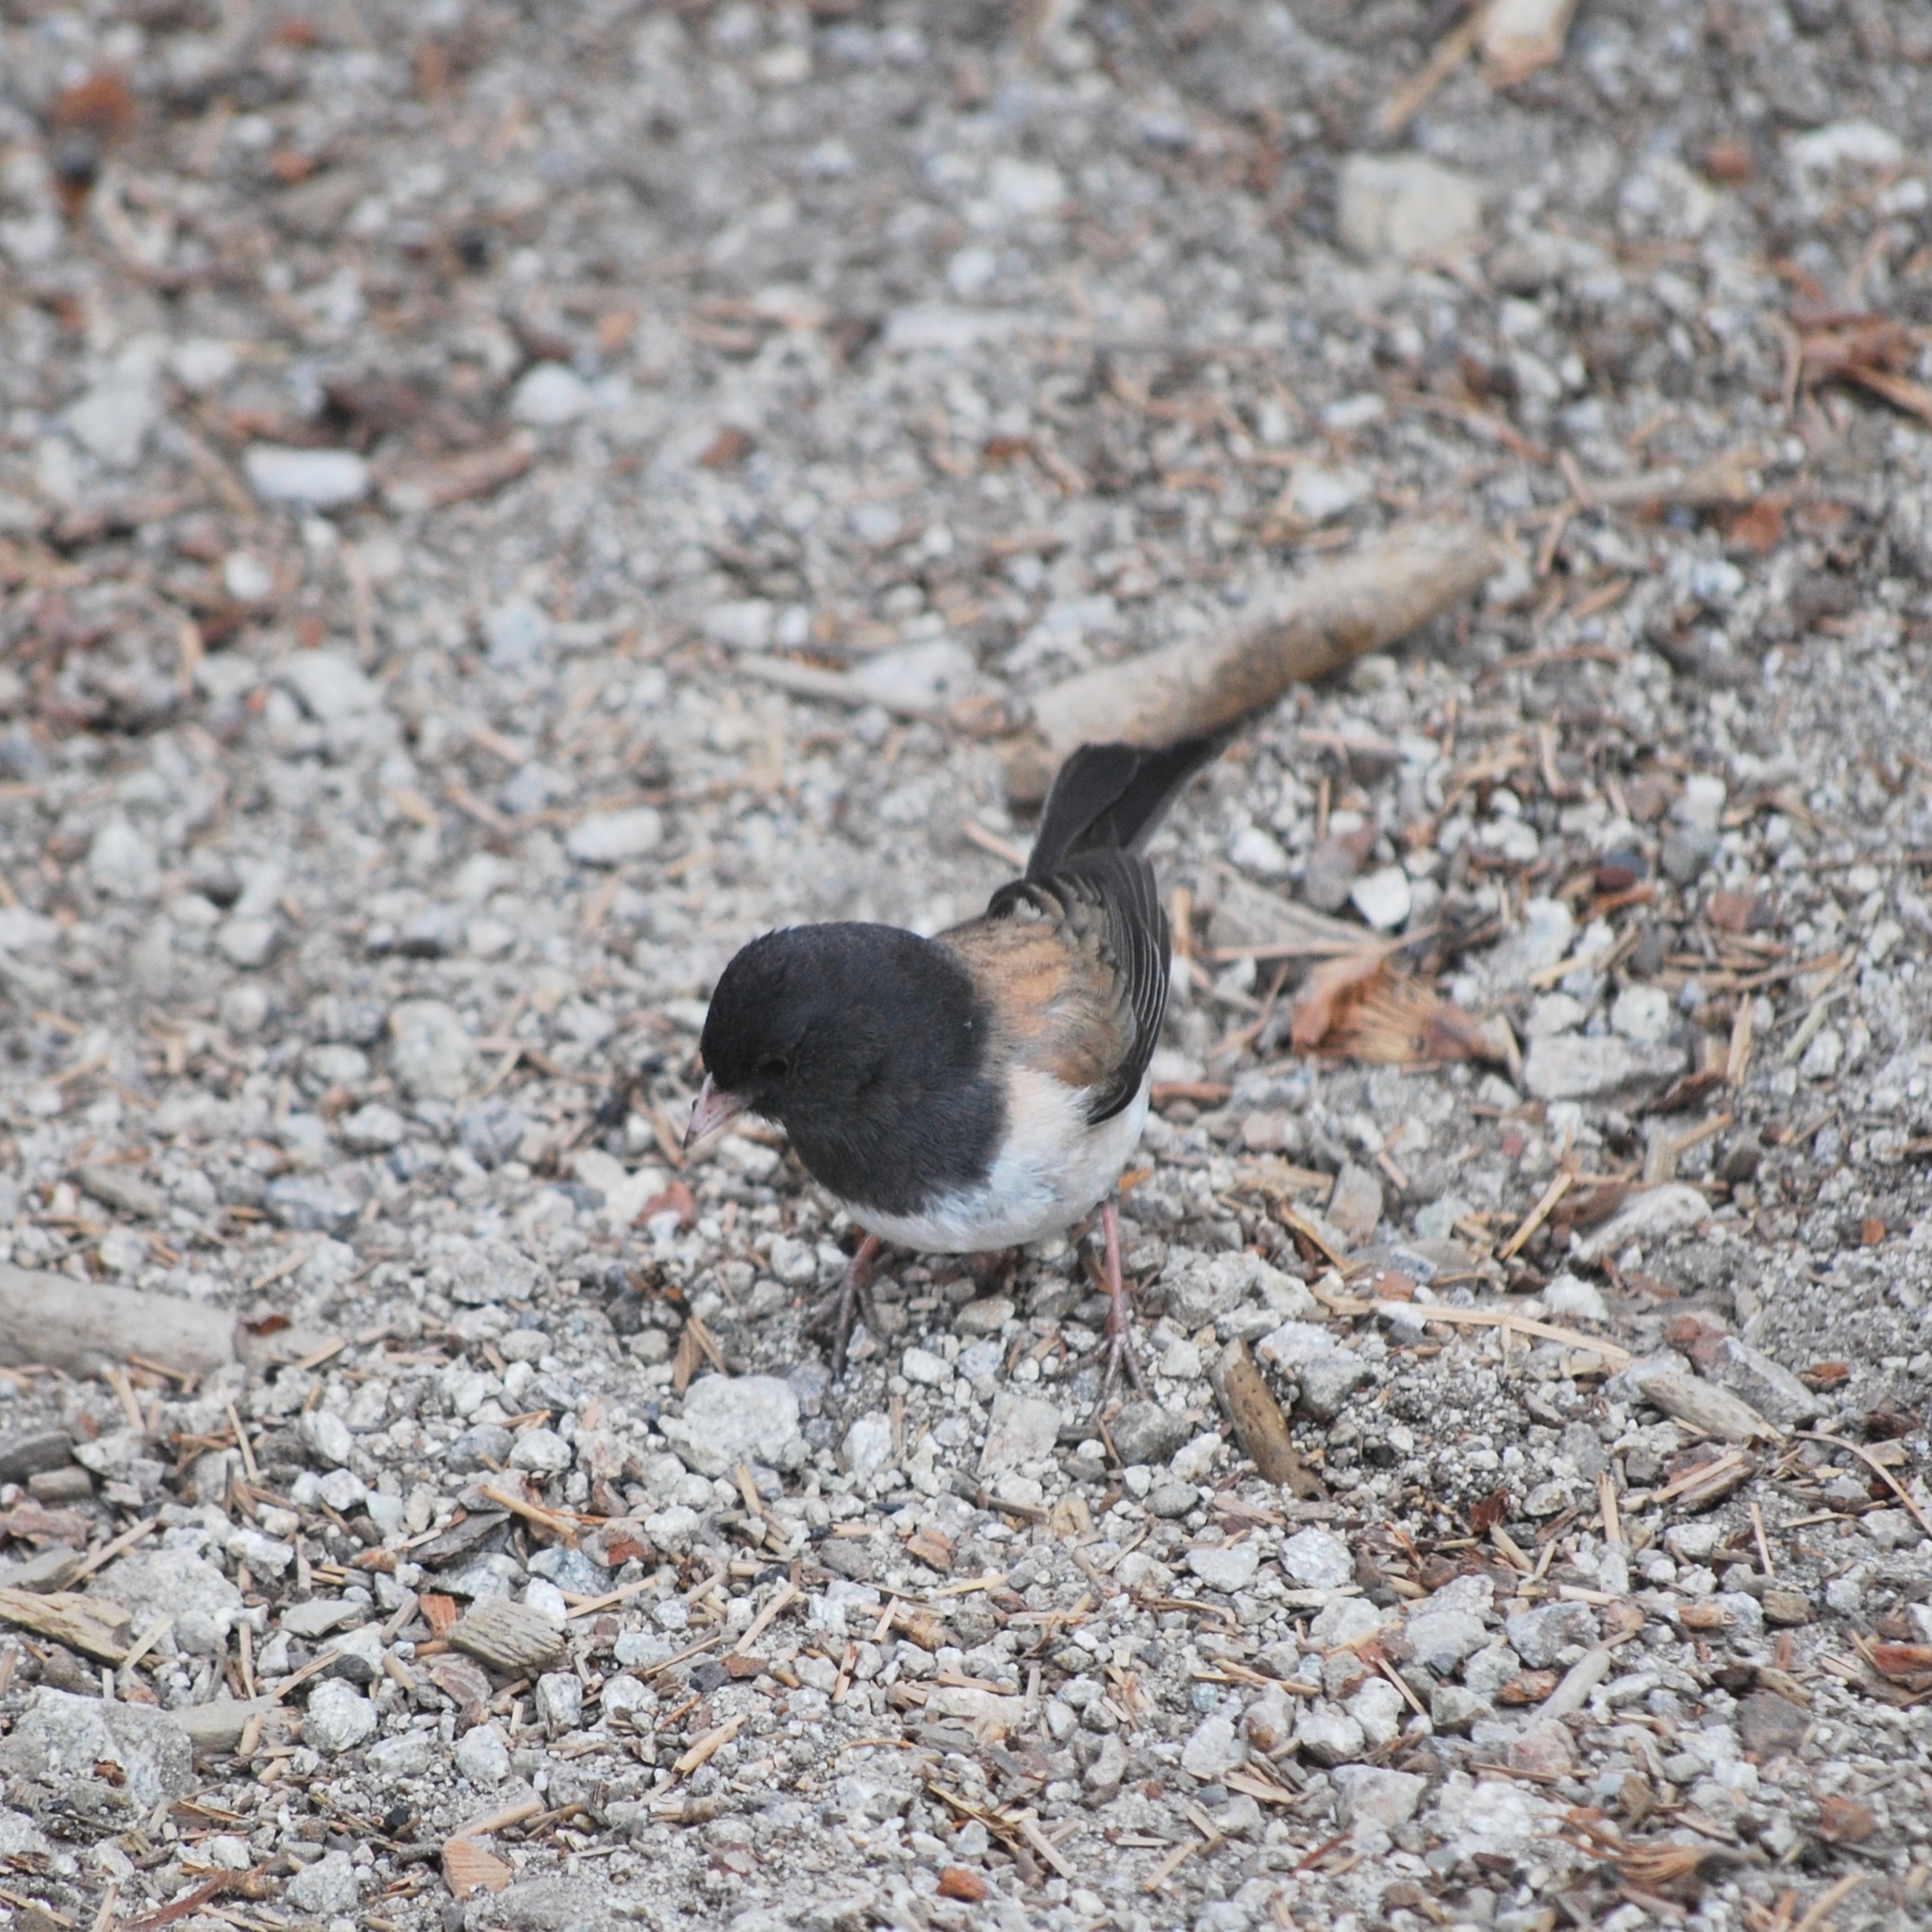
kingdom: Animalia
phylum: Chordata
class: Aves
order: Passeriformes
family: Passerellidae
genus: Junco
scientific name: Junco hyemalis
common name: Dark-eyed junco
